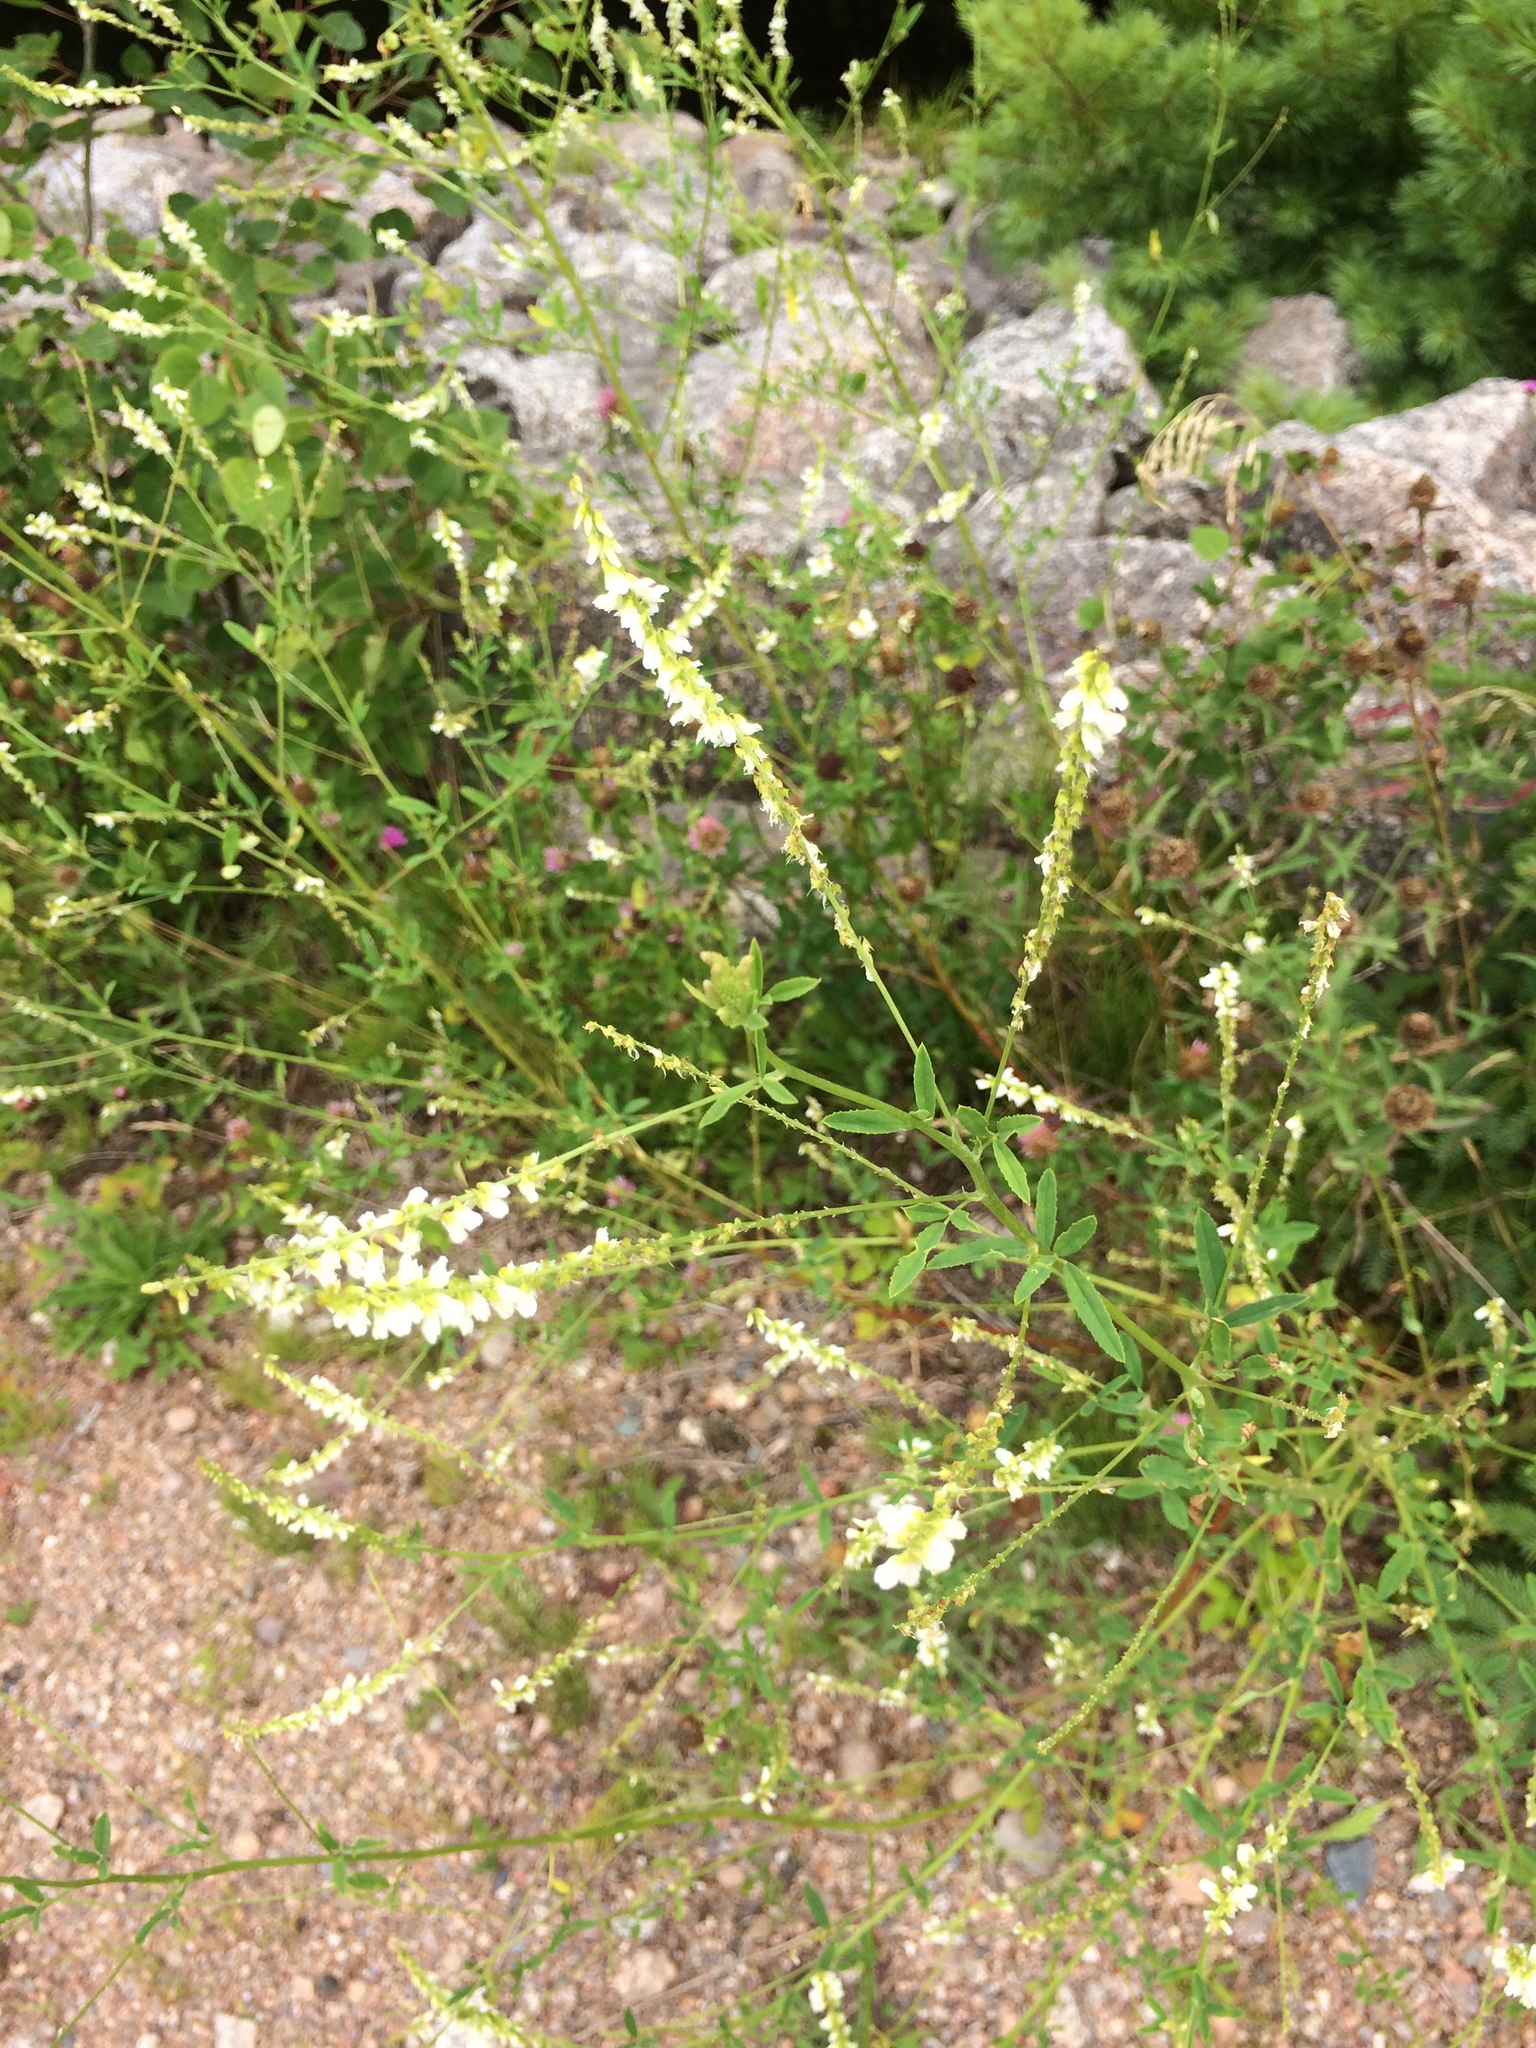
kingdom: Plantae
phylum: Tracheophyta
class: Magnoliopsida
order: Fabales
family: Fabaceae
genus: Melilotus
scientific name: Melilotus albus
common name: White melilot
